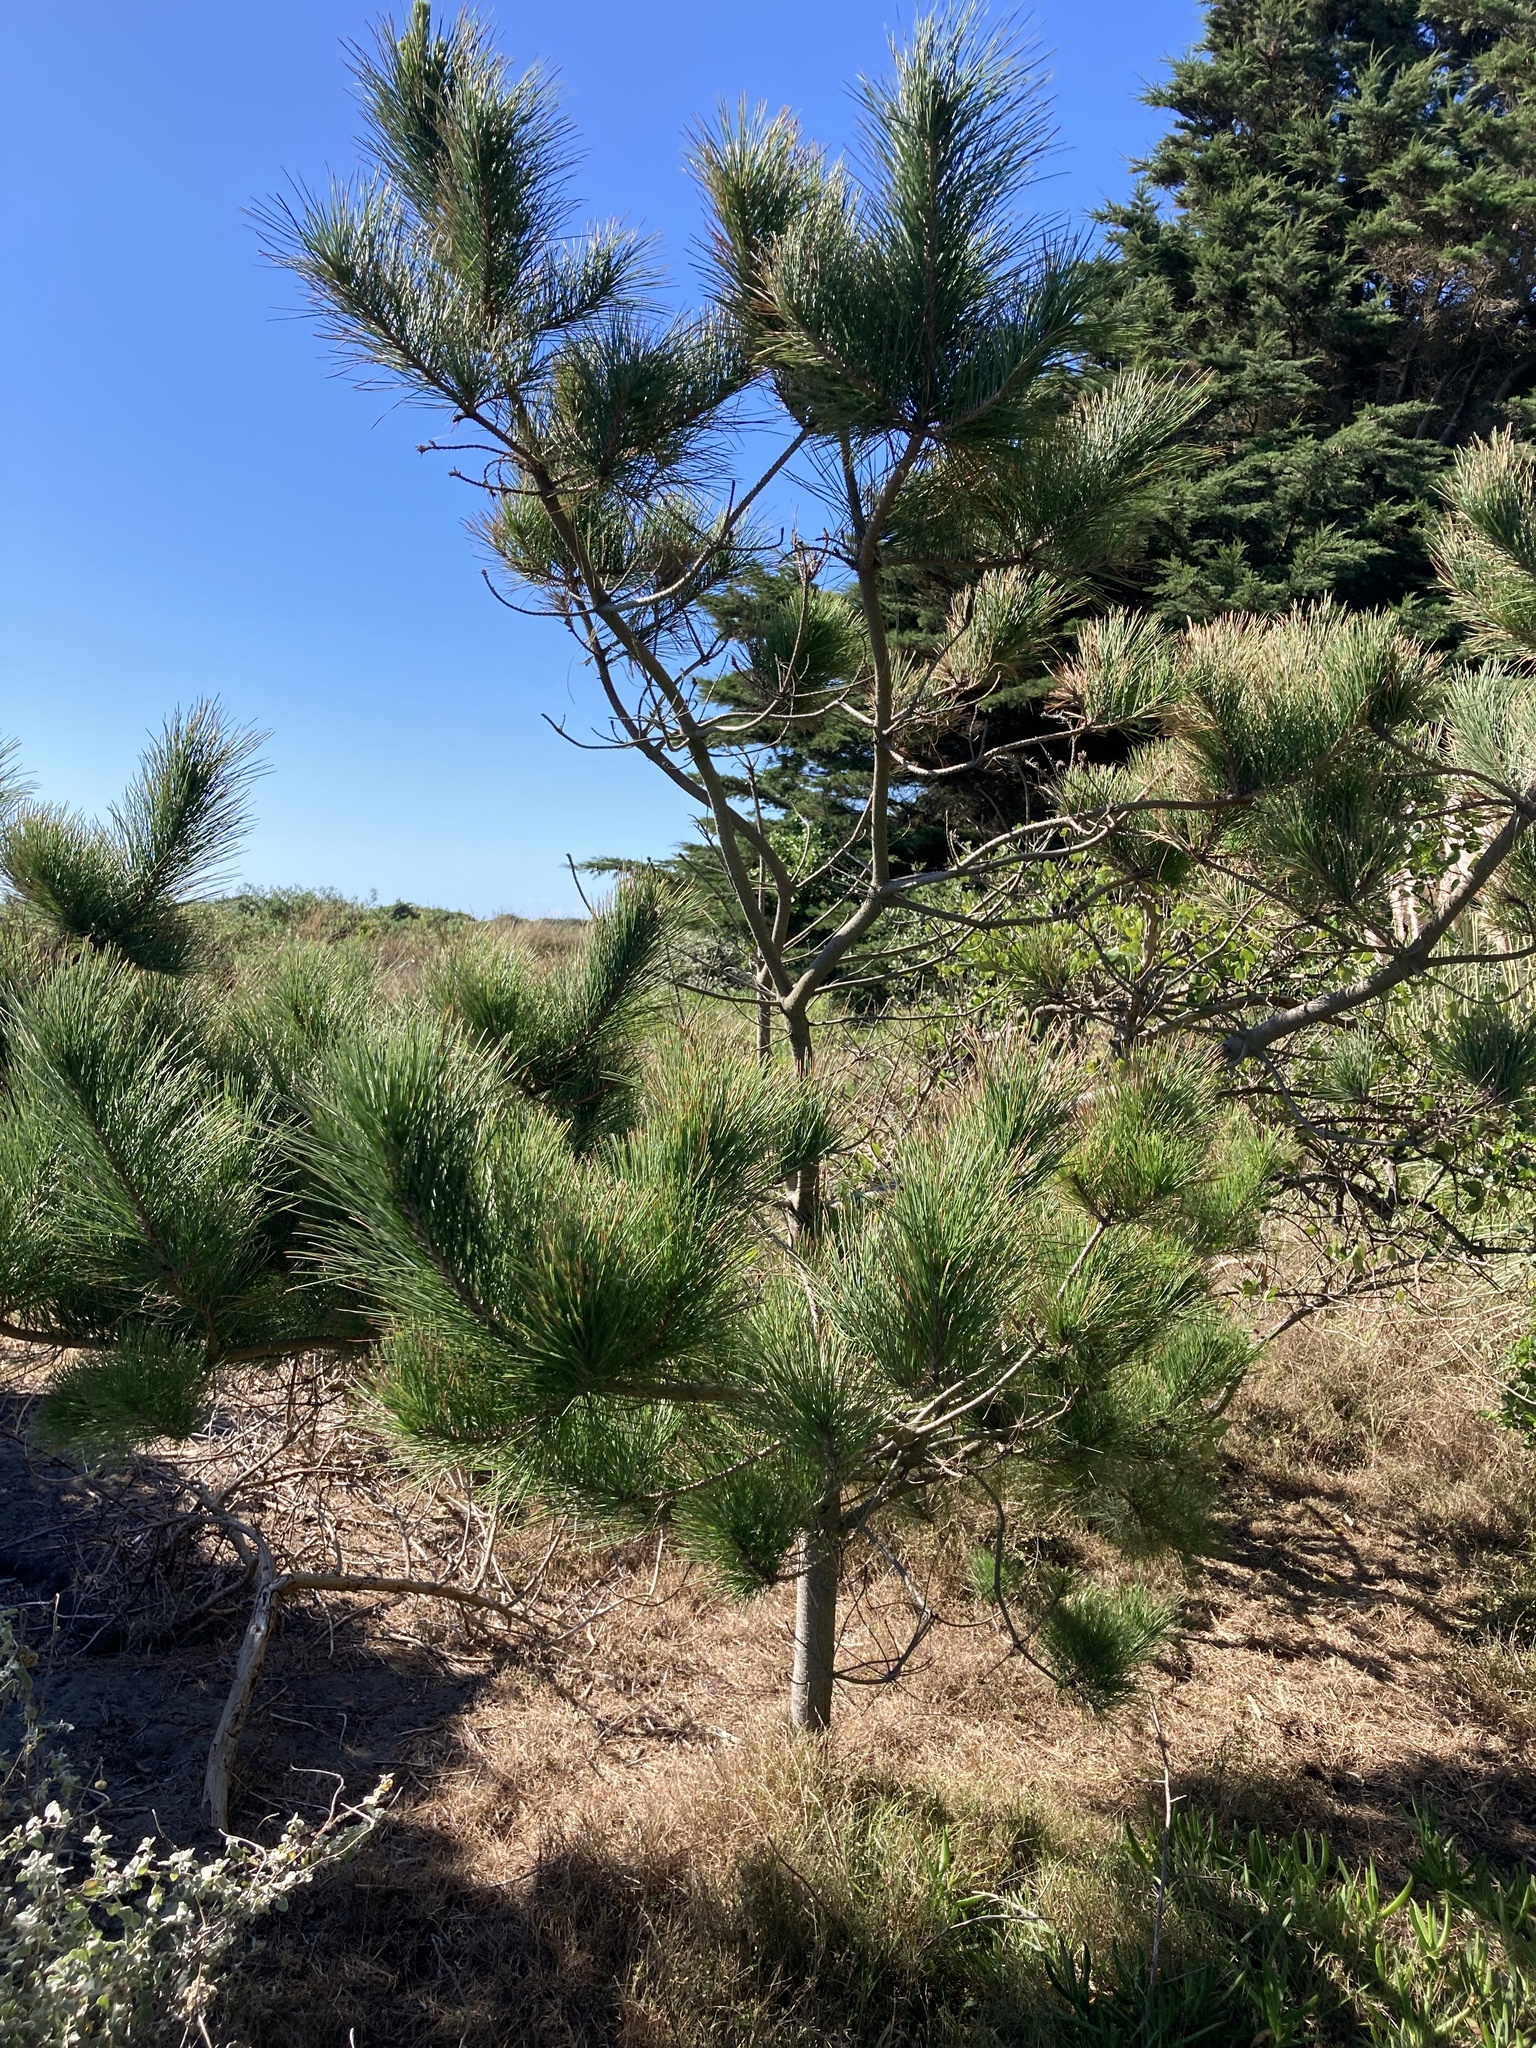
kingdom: Plantae
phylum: Tracheophyta
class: Pinopsida
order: Pinales
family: Pinaceae
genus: Pinus
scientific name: Pinus radiata
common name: Monterey pine
